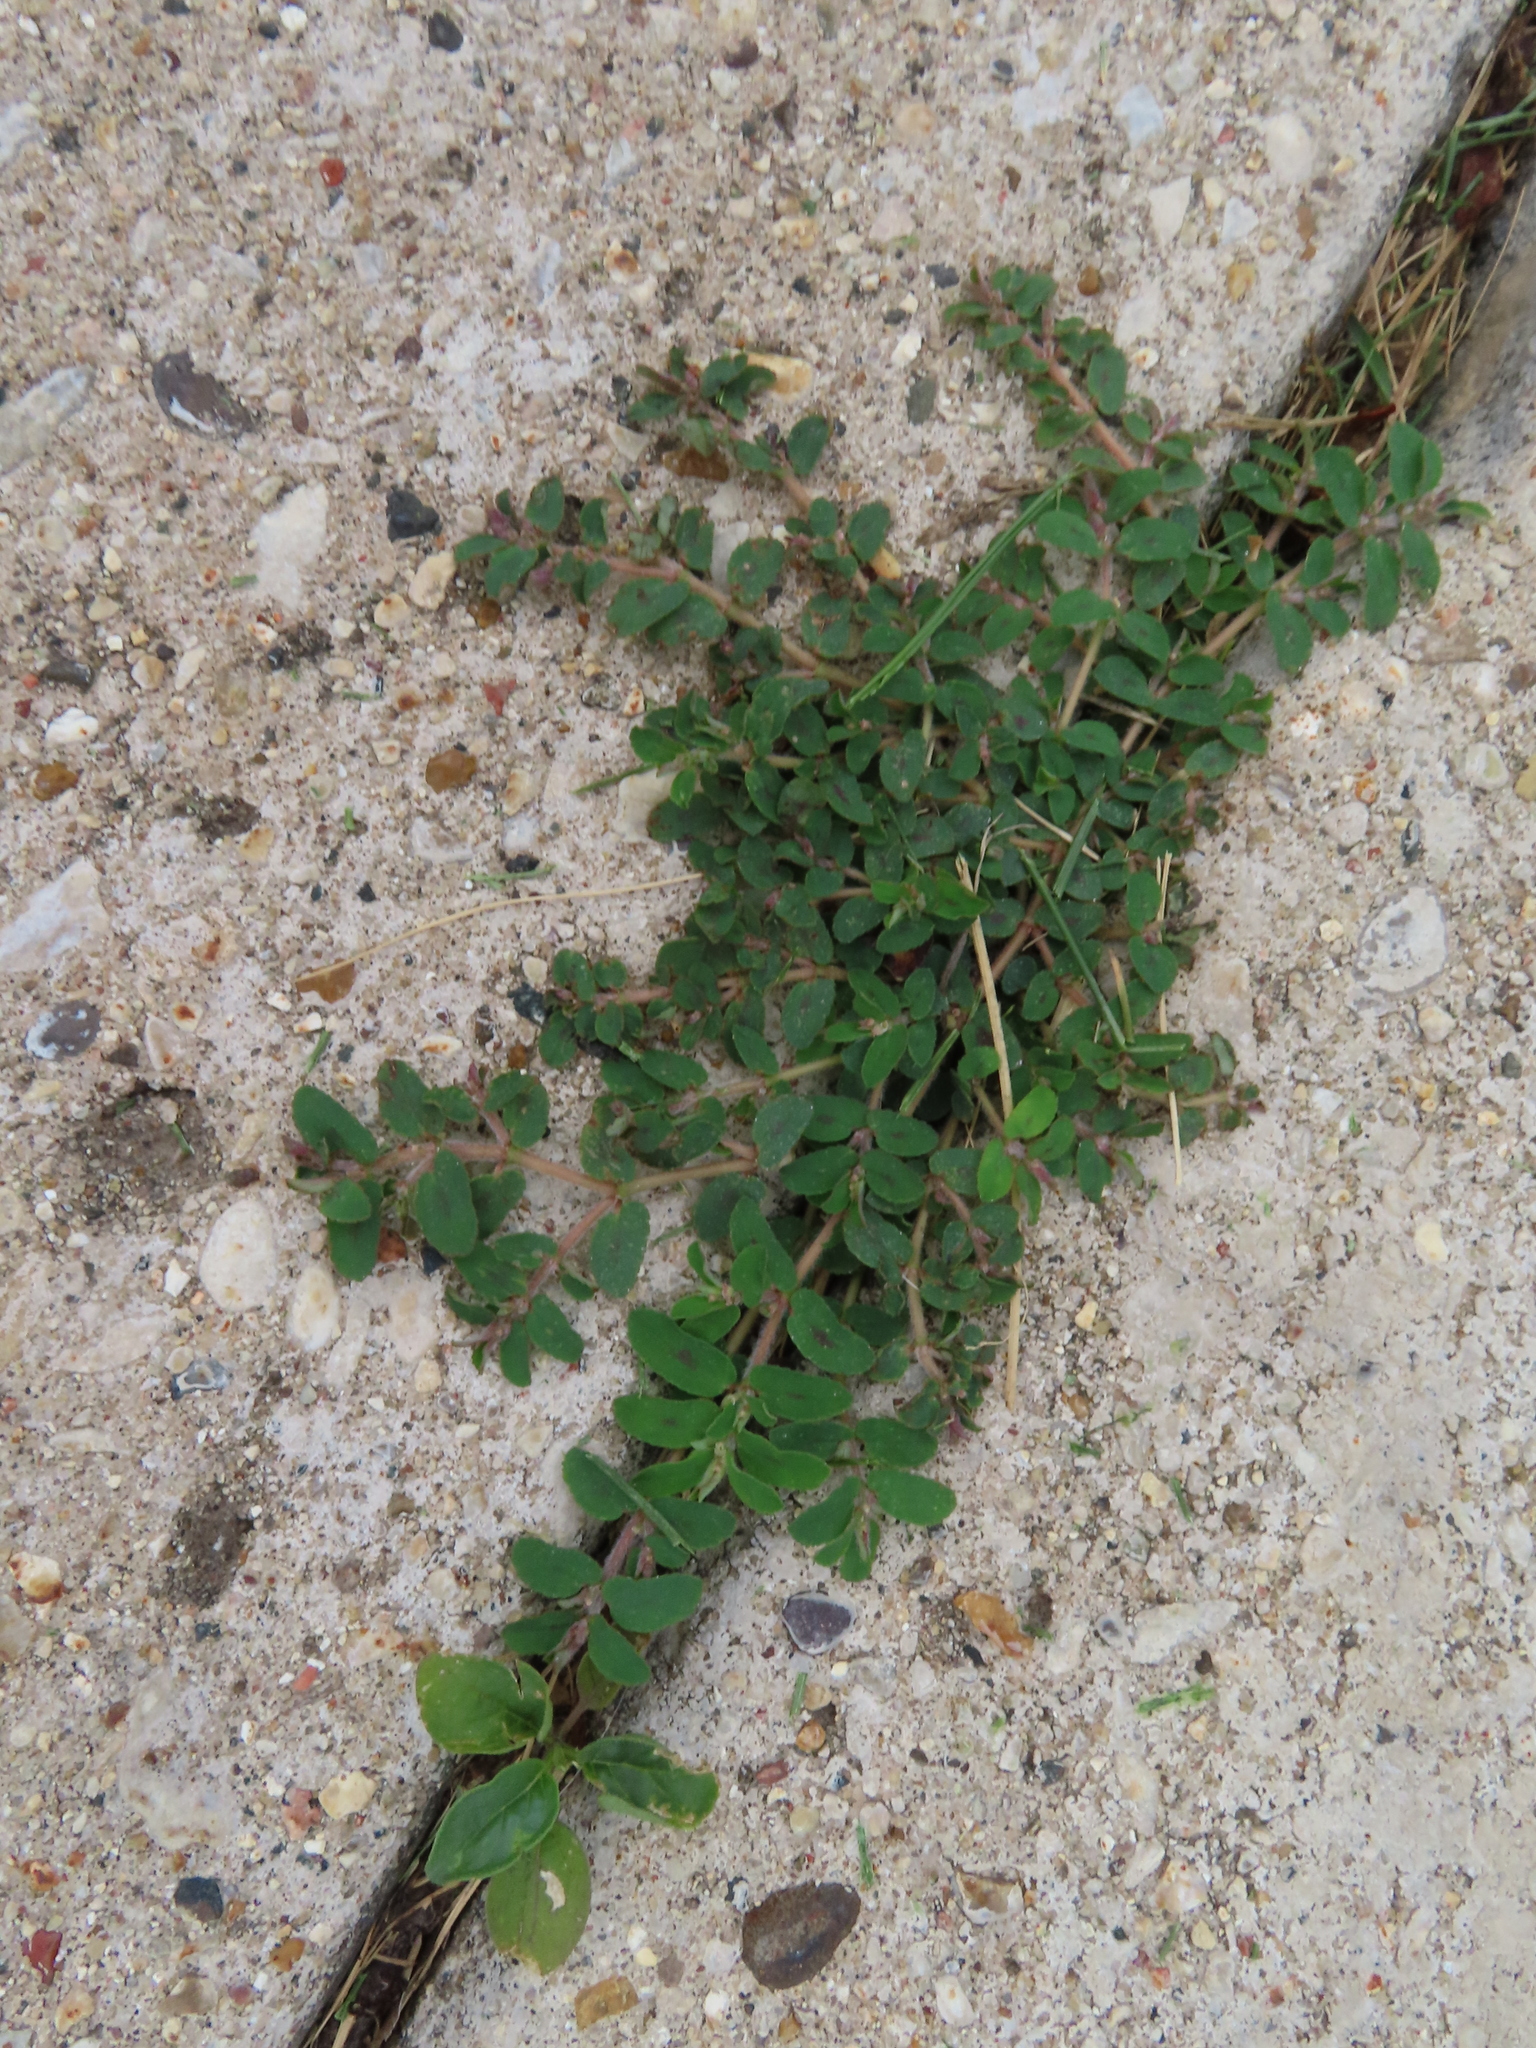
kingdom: Plantae
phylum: Tracheophyta
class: Magnoliopsida
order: Malpighiales
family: Euphorbiaceae
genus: Euphorbia
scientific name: Euphorbia maculata
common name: Spotted spurge
